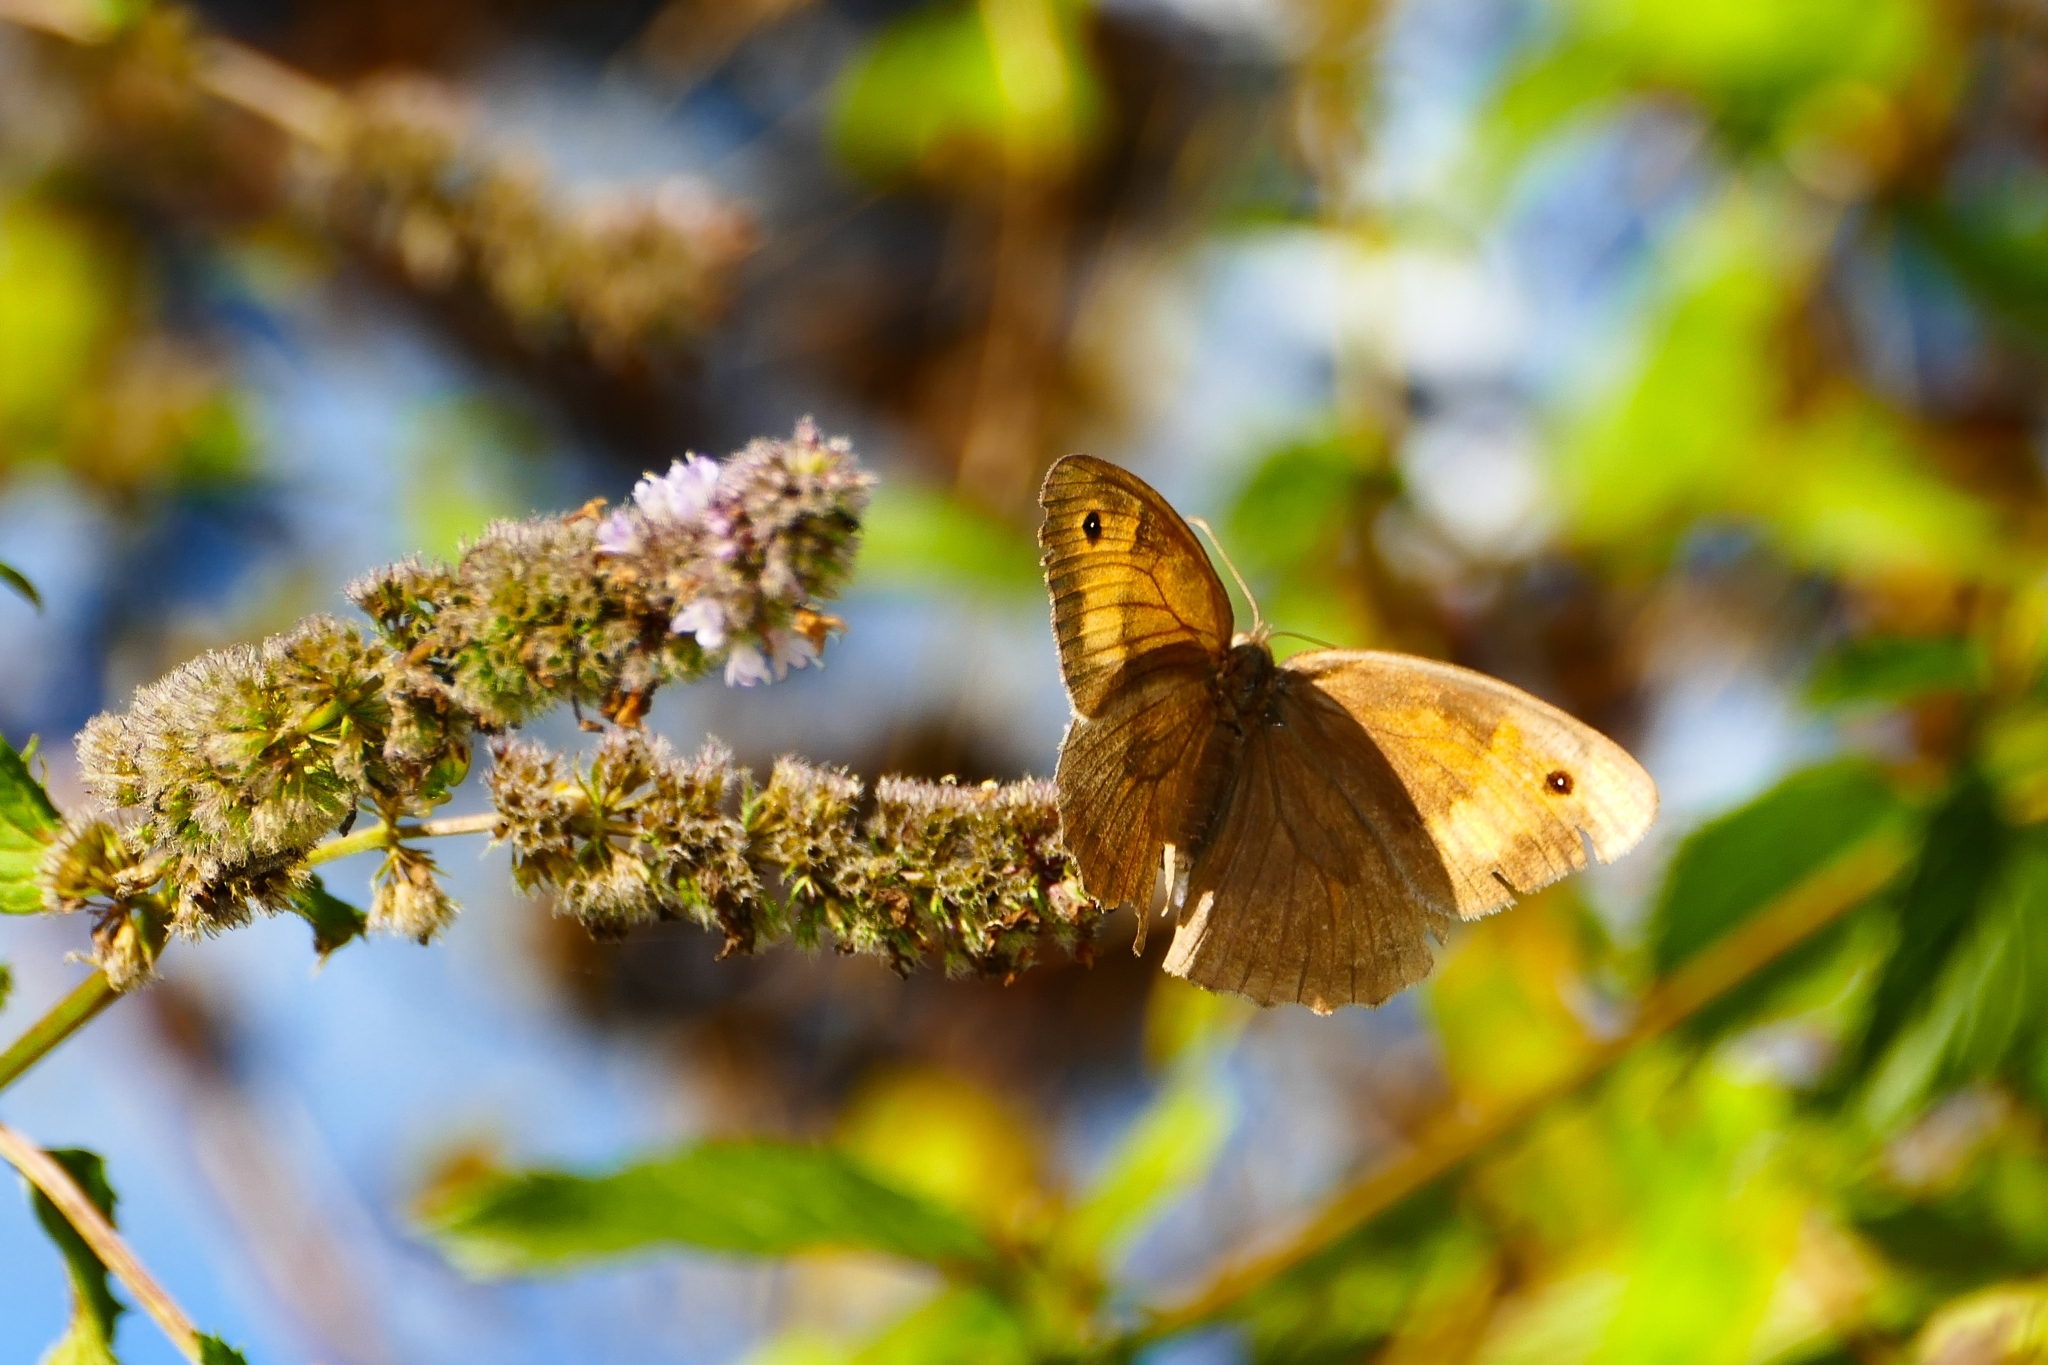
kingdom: Animalia
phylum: Arthropoda
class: Insecta
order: Lepidoptera
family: Nymphalidae
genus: Maniola
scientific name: Maniola jurtina
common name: Meadow brown
